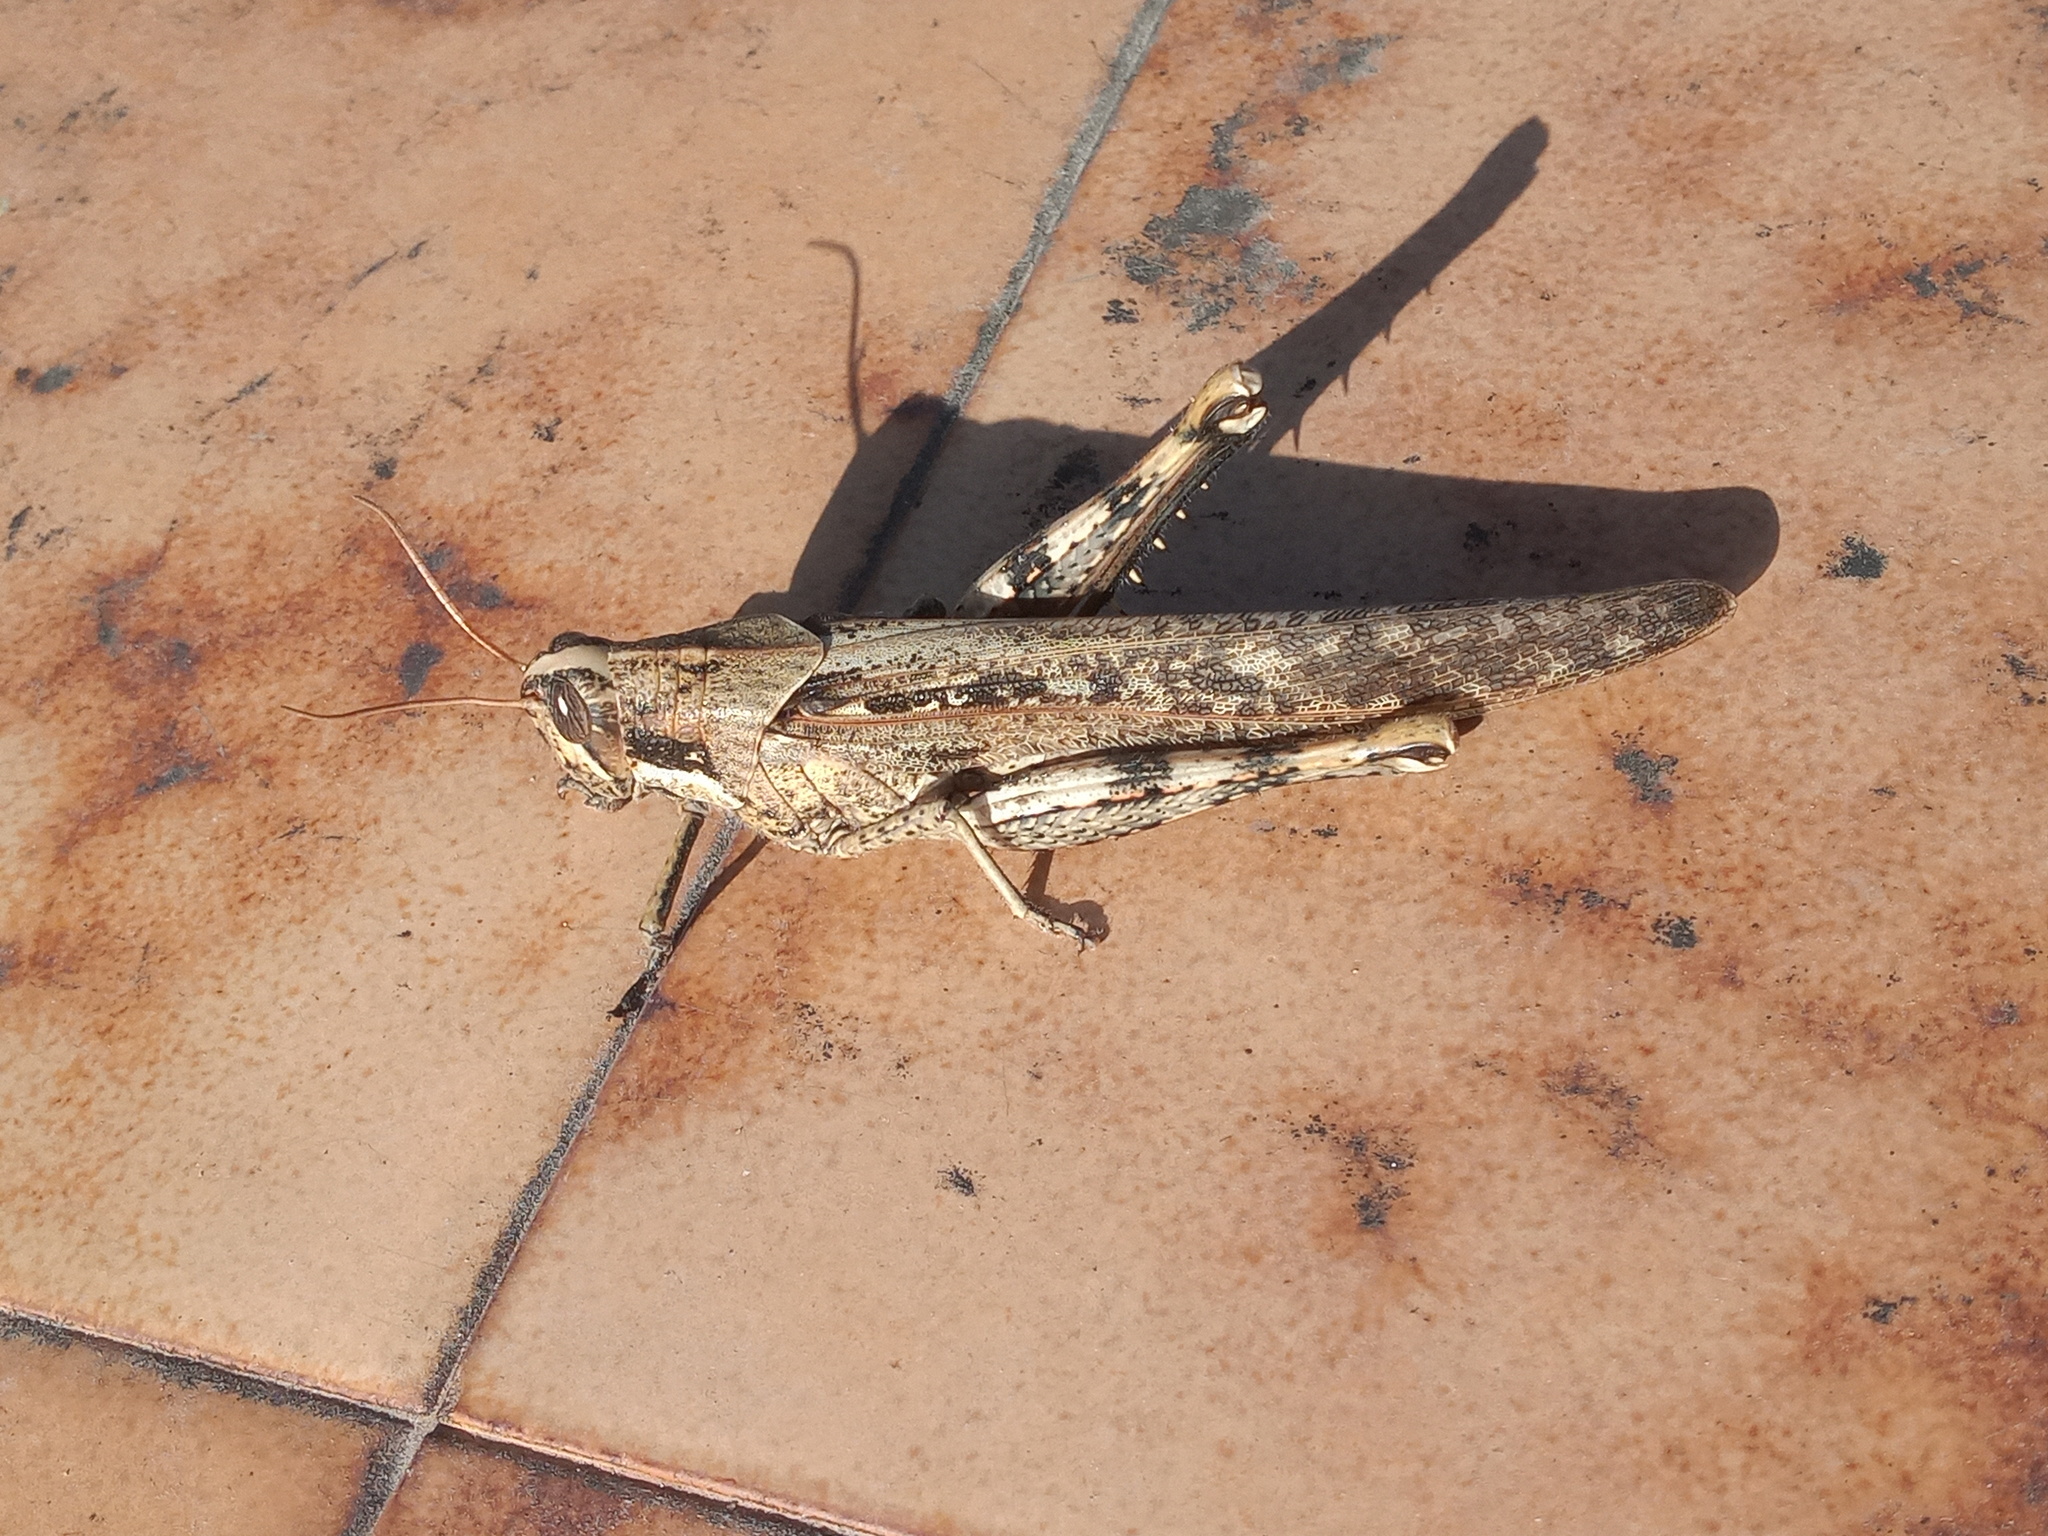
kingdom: Animalia
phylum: Arthropoda
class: Insecta
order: Orthoptera
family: Acrididae
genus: Schistocerca
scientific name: Schistocerca nitens
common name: Vagrant grasshopper
